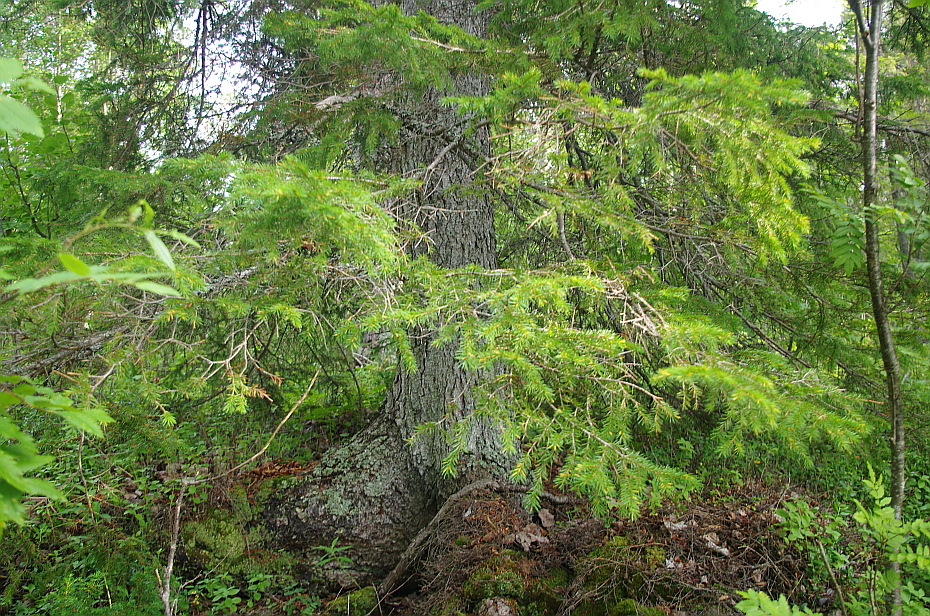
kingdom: Plantae
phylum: Tracheophyta
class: Pinopsida
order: Pinales
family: Pinaceae
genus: Picea
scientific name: Picea fennica
